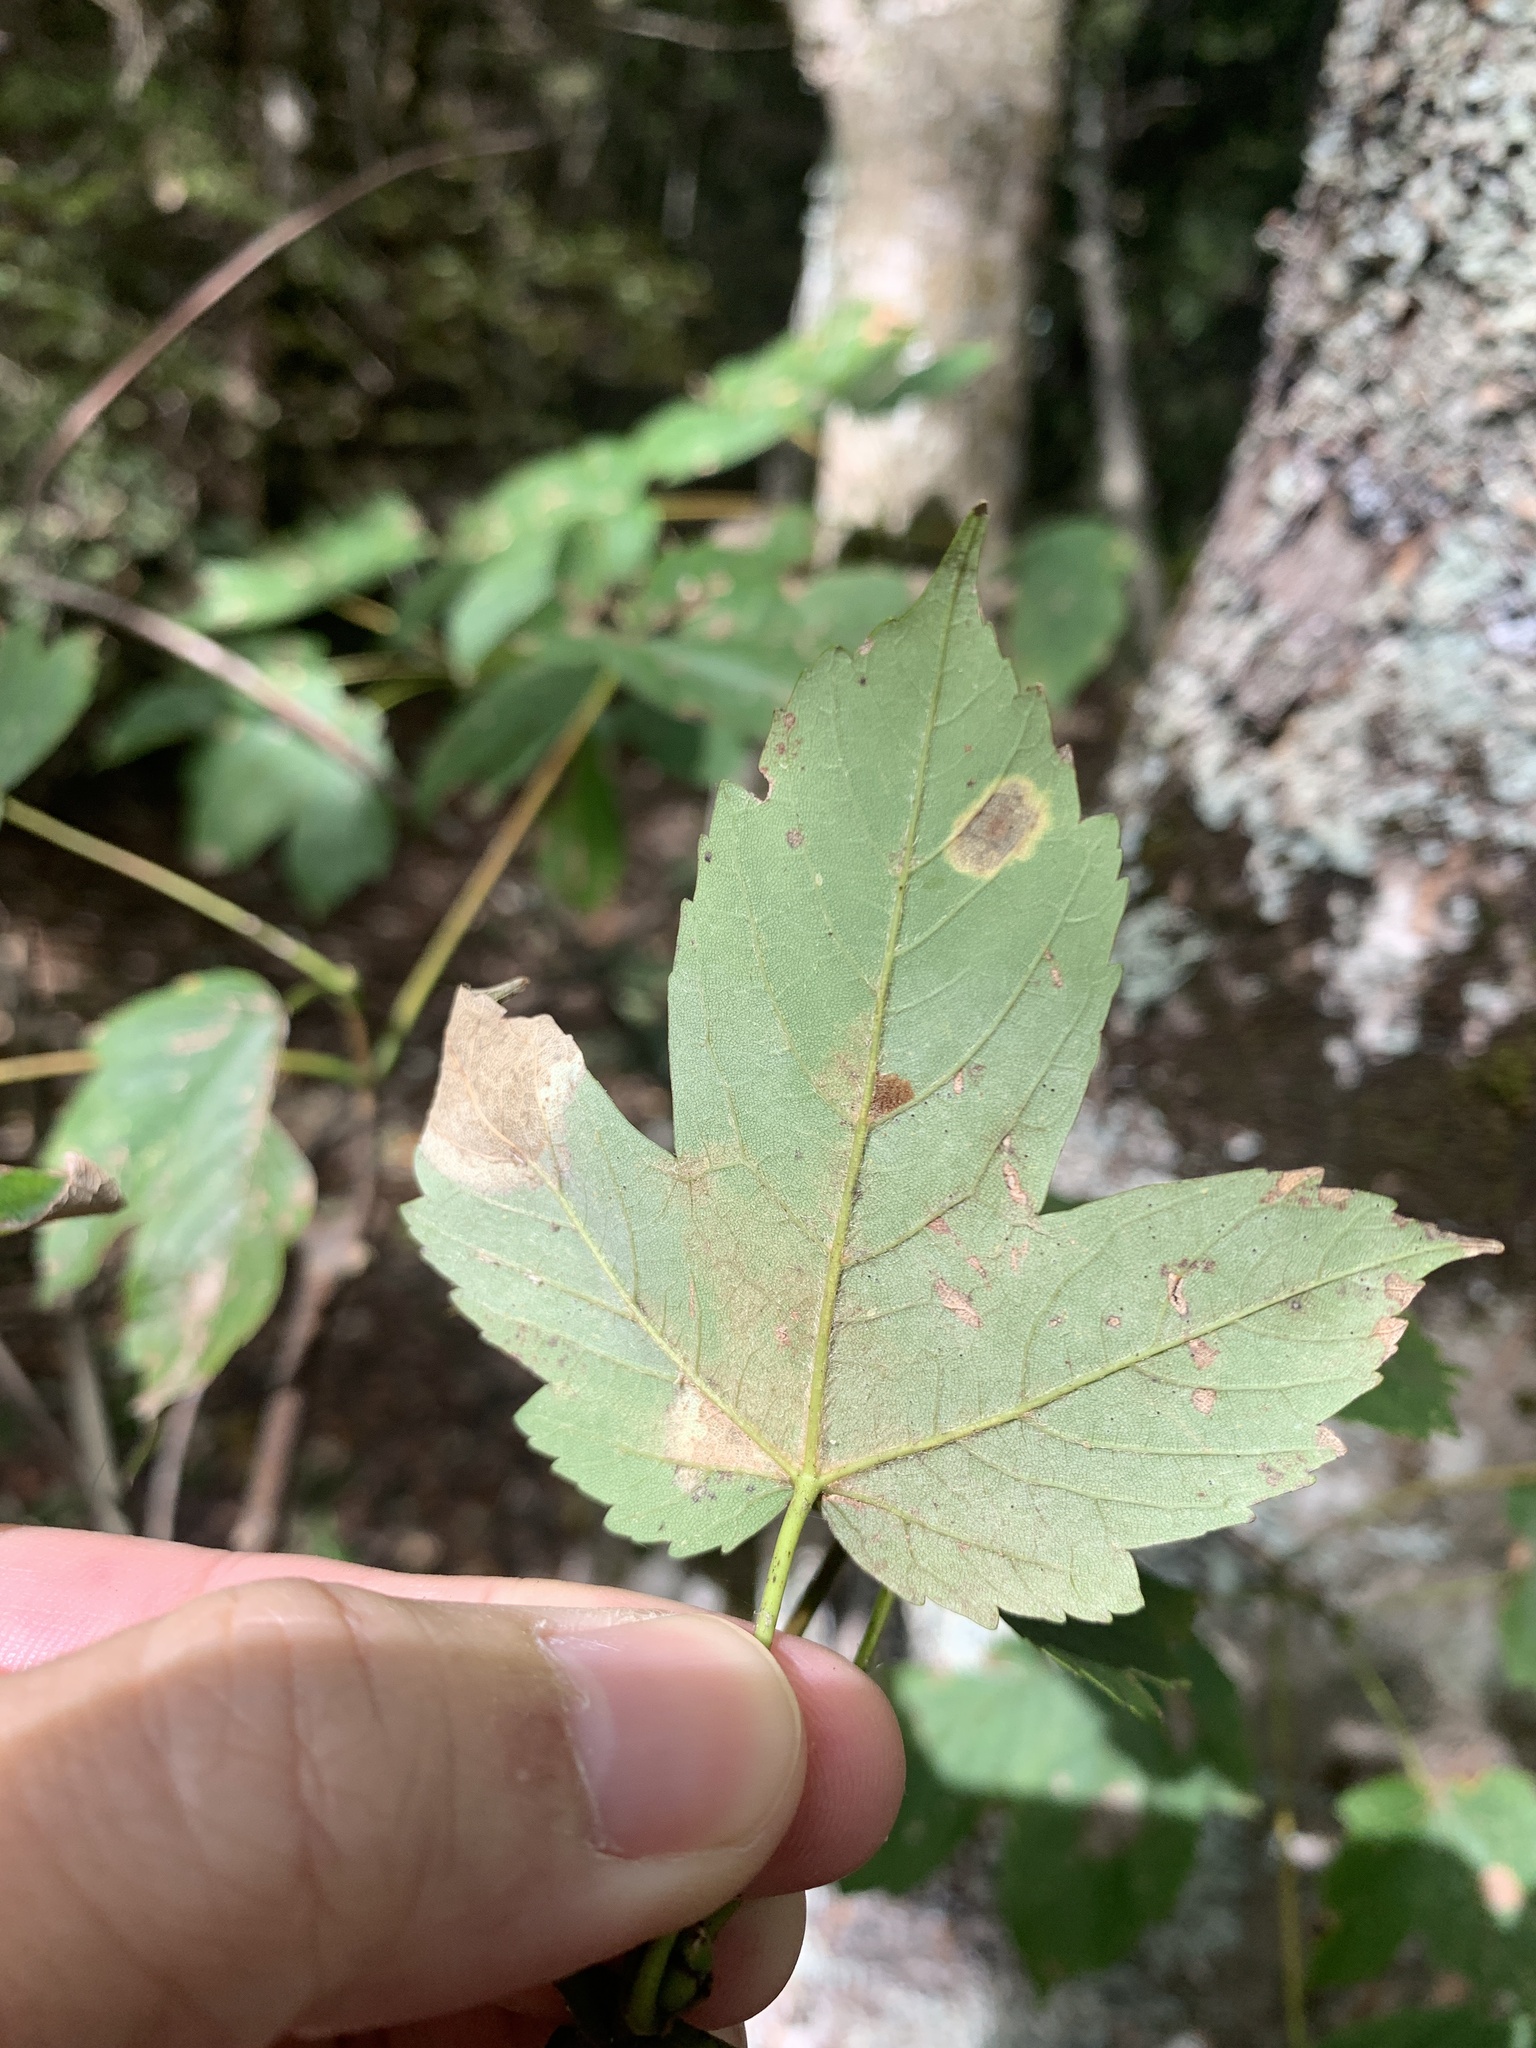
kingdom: Plantae
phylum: Tracheophyta
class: Magnoliopsida
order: Sapindales
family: Sapindaceae
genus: Acer
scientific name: Acer pseudoplatanus
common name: Sycamore
